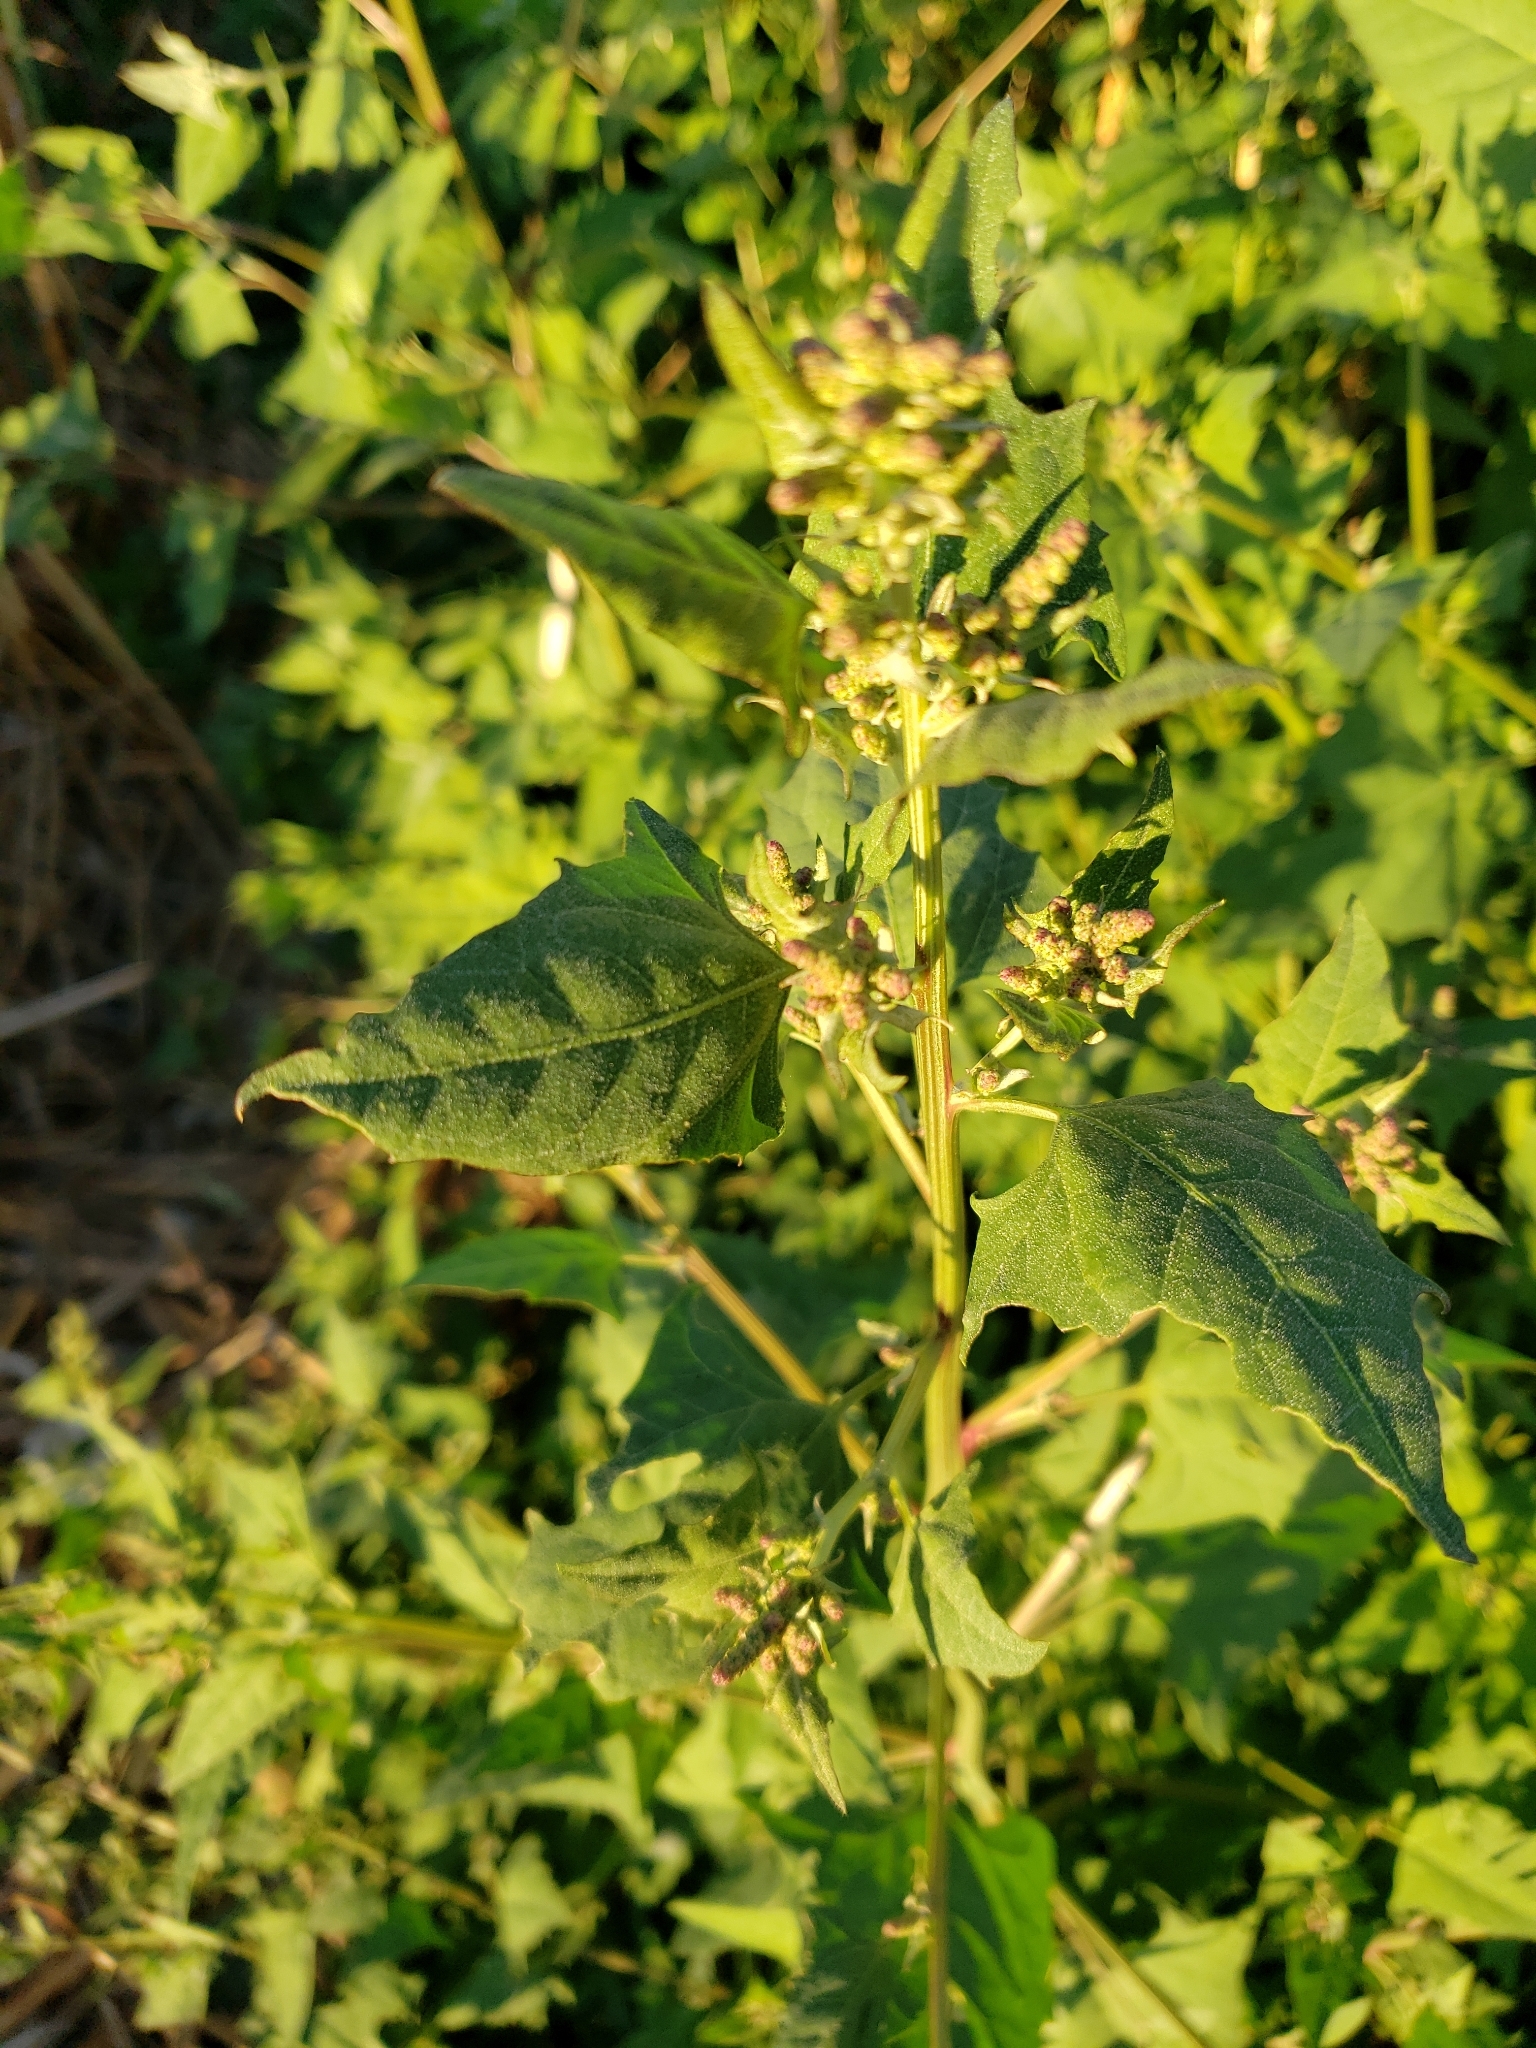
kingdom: Plantae
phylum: Tracheophyta
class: Magnoliopsida
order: Caryophyllales
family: Amaranthaceae
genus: Atriplex
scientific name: Atriplex prostrata
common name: Spear-leaved orache
